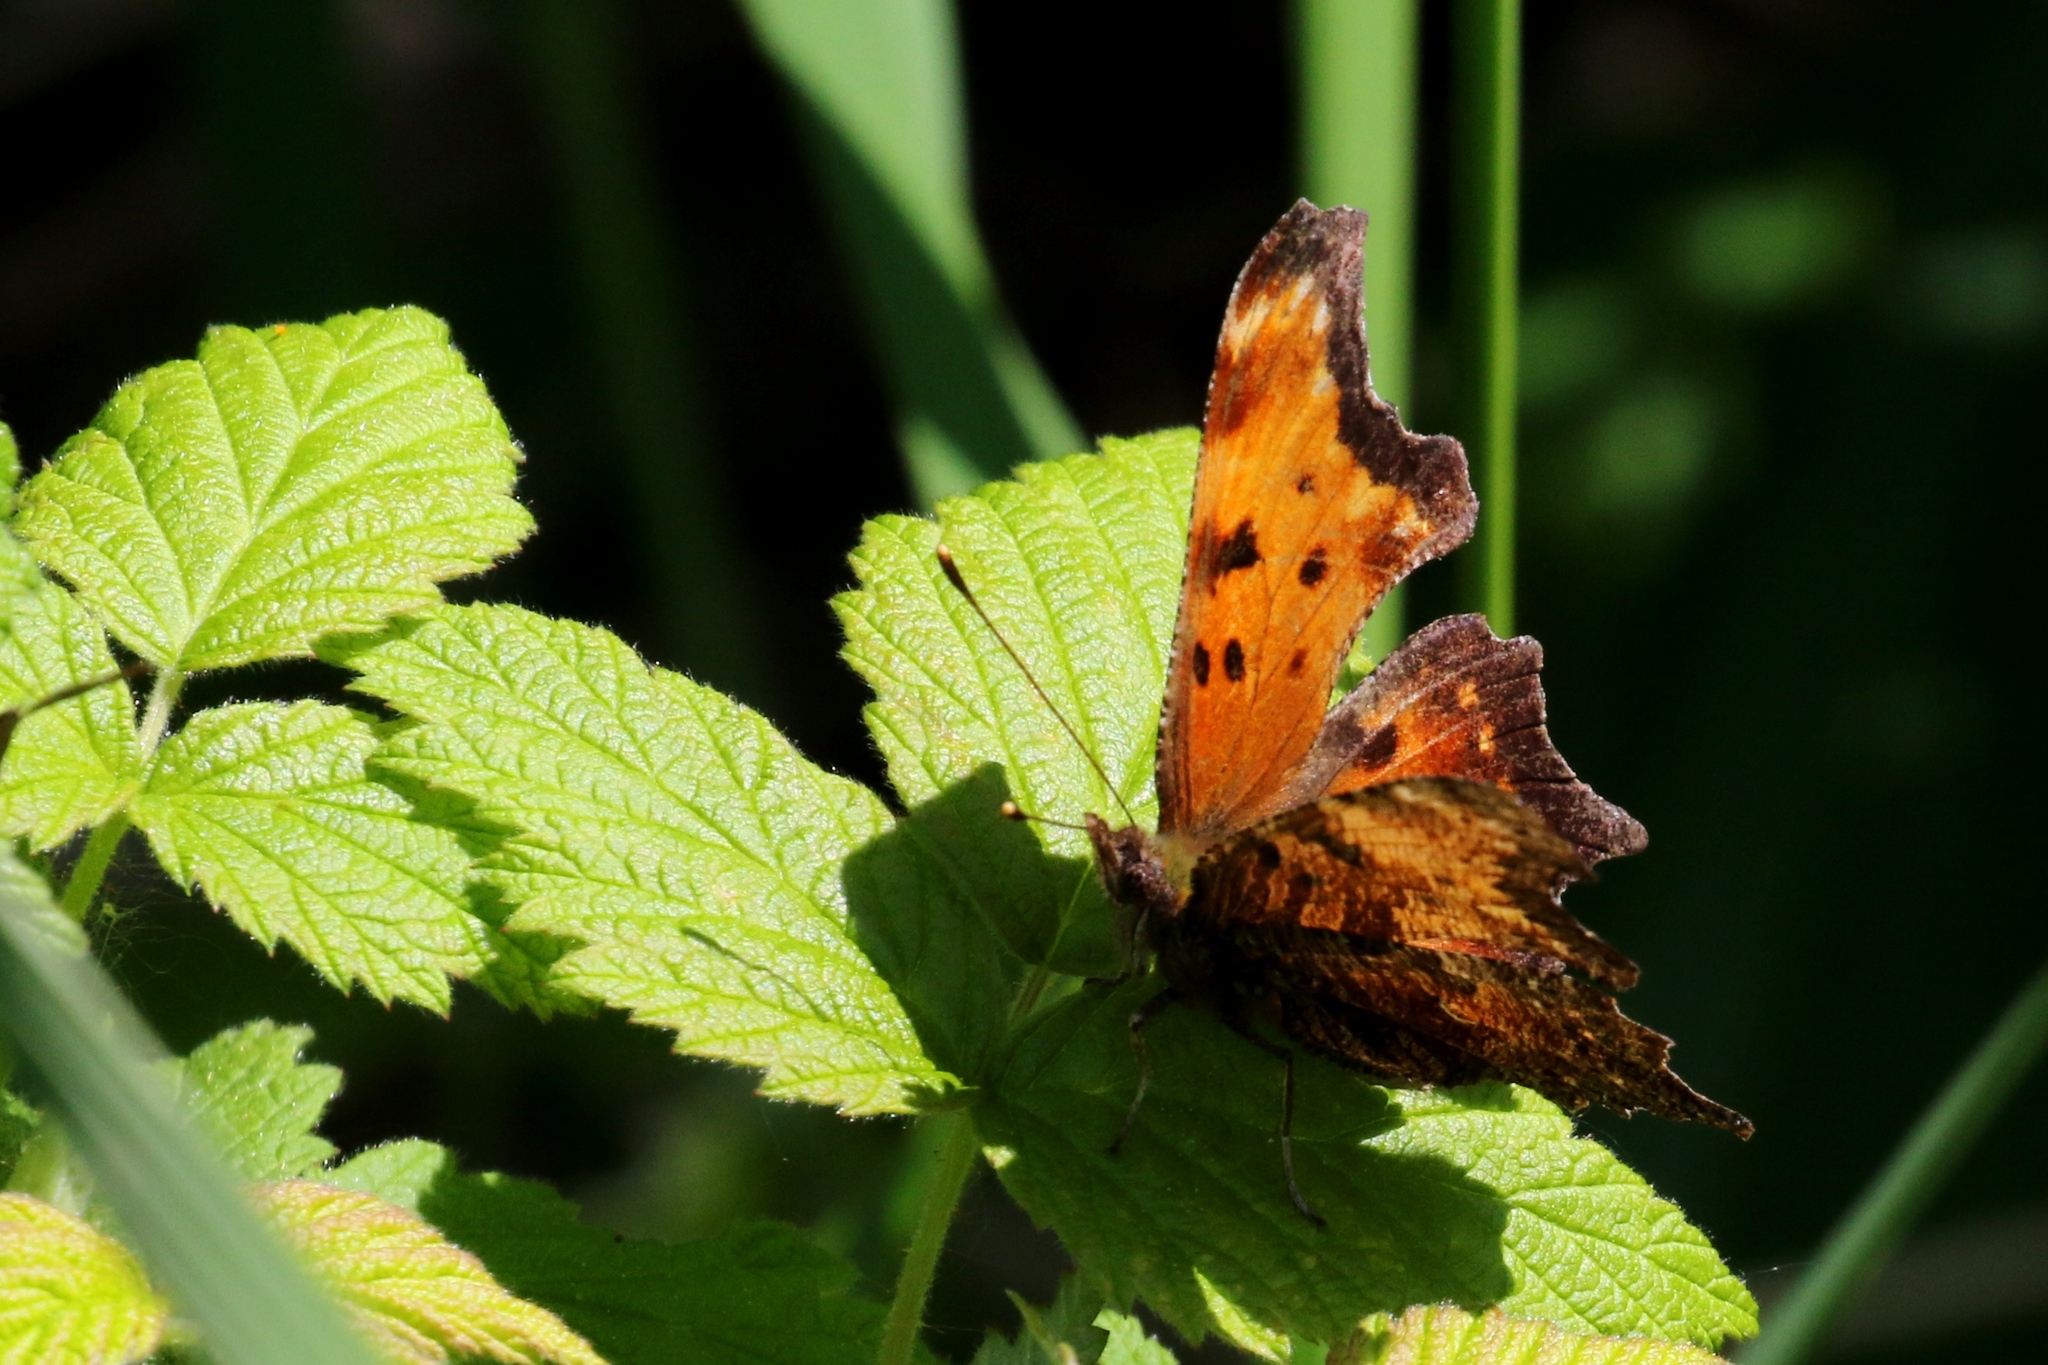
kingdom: Animalia
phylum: Arthropoda
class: Insecta
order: Lepidoptera
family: Nymphalidae
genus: Polygonia
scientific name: Polygonia progne
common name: Gray comma
